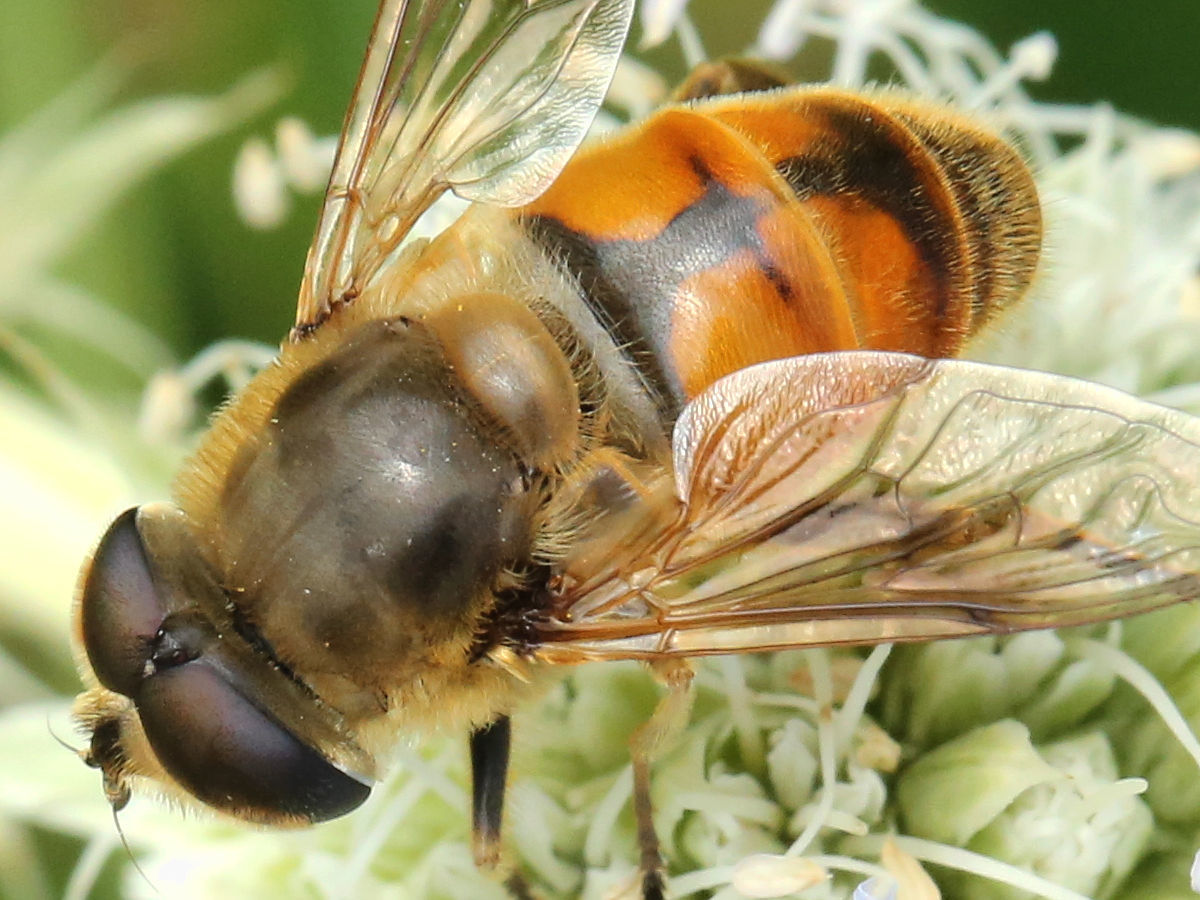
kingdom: Animalia
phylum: Arthropoda
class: Insecta
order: Diptera
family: Syrphidae
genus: Eristalis
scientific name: Eristalis tenax
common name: Drone fly
